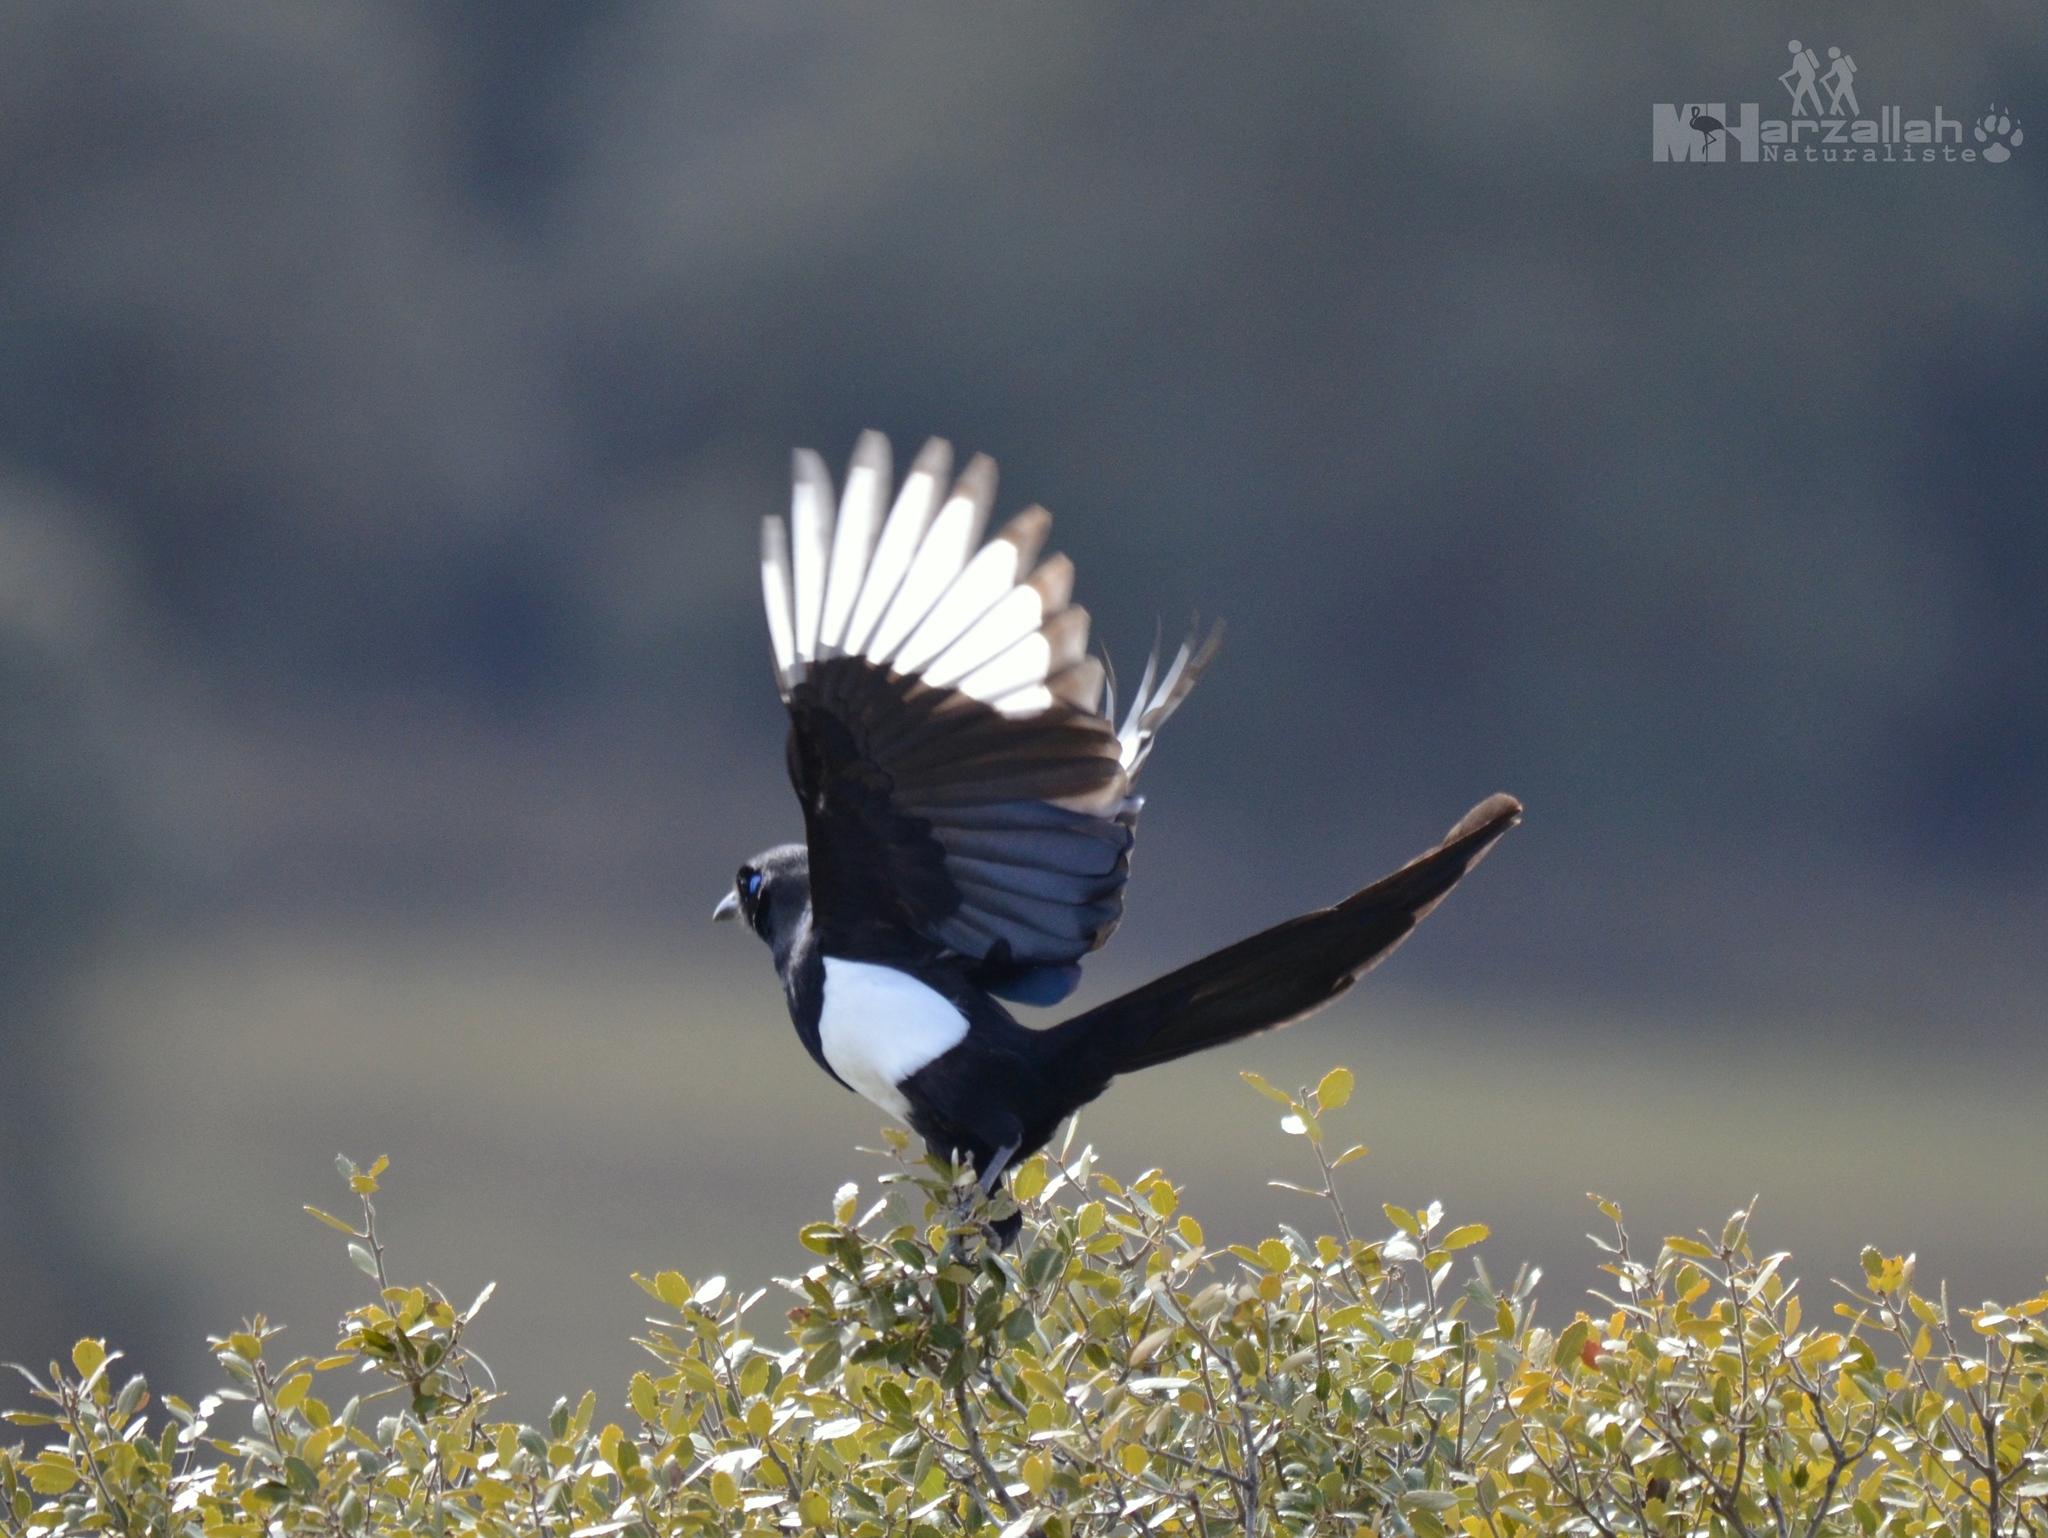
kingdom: Animalia
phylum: Chordata
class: Aves
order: Passeriformes
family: Corvidae
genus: Pica
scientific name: Pica mauritanica
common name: Maghreb magpie
